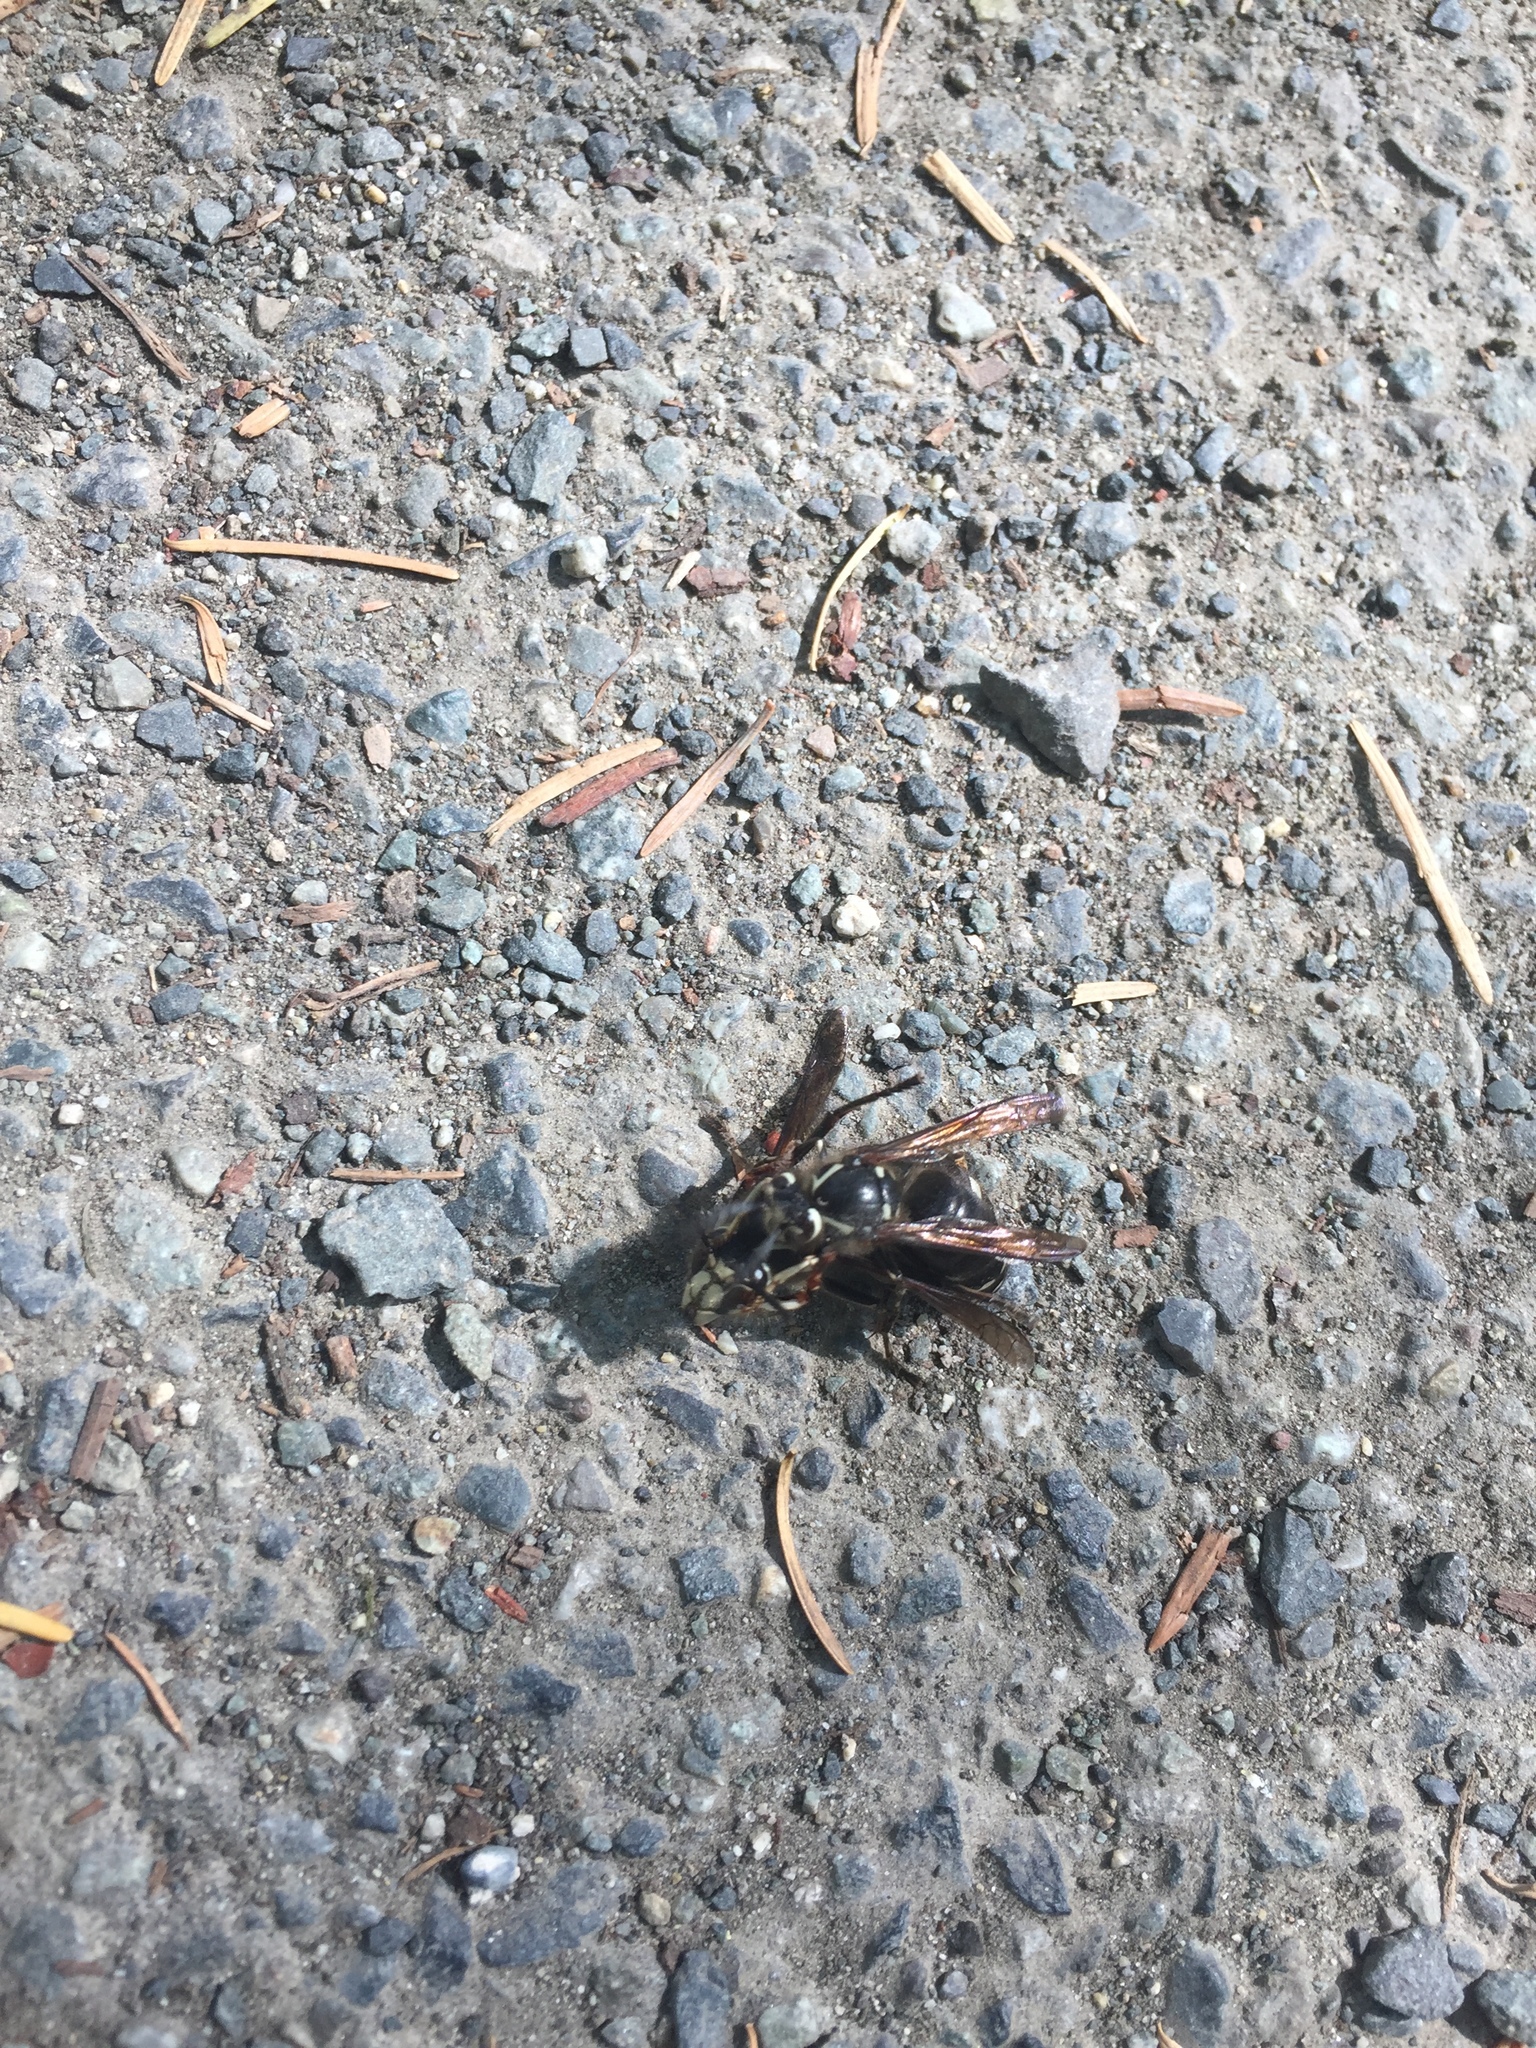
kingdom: Animalia
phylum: Arthropoda
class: Insecta
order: Hymenoptera
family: Vespidae
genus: Dolichovespula
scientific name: Dolichovespula maculata
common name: Bald-faced hornet
